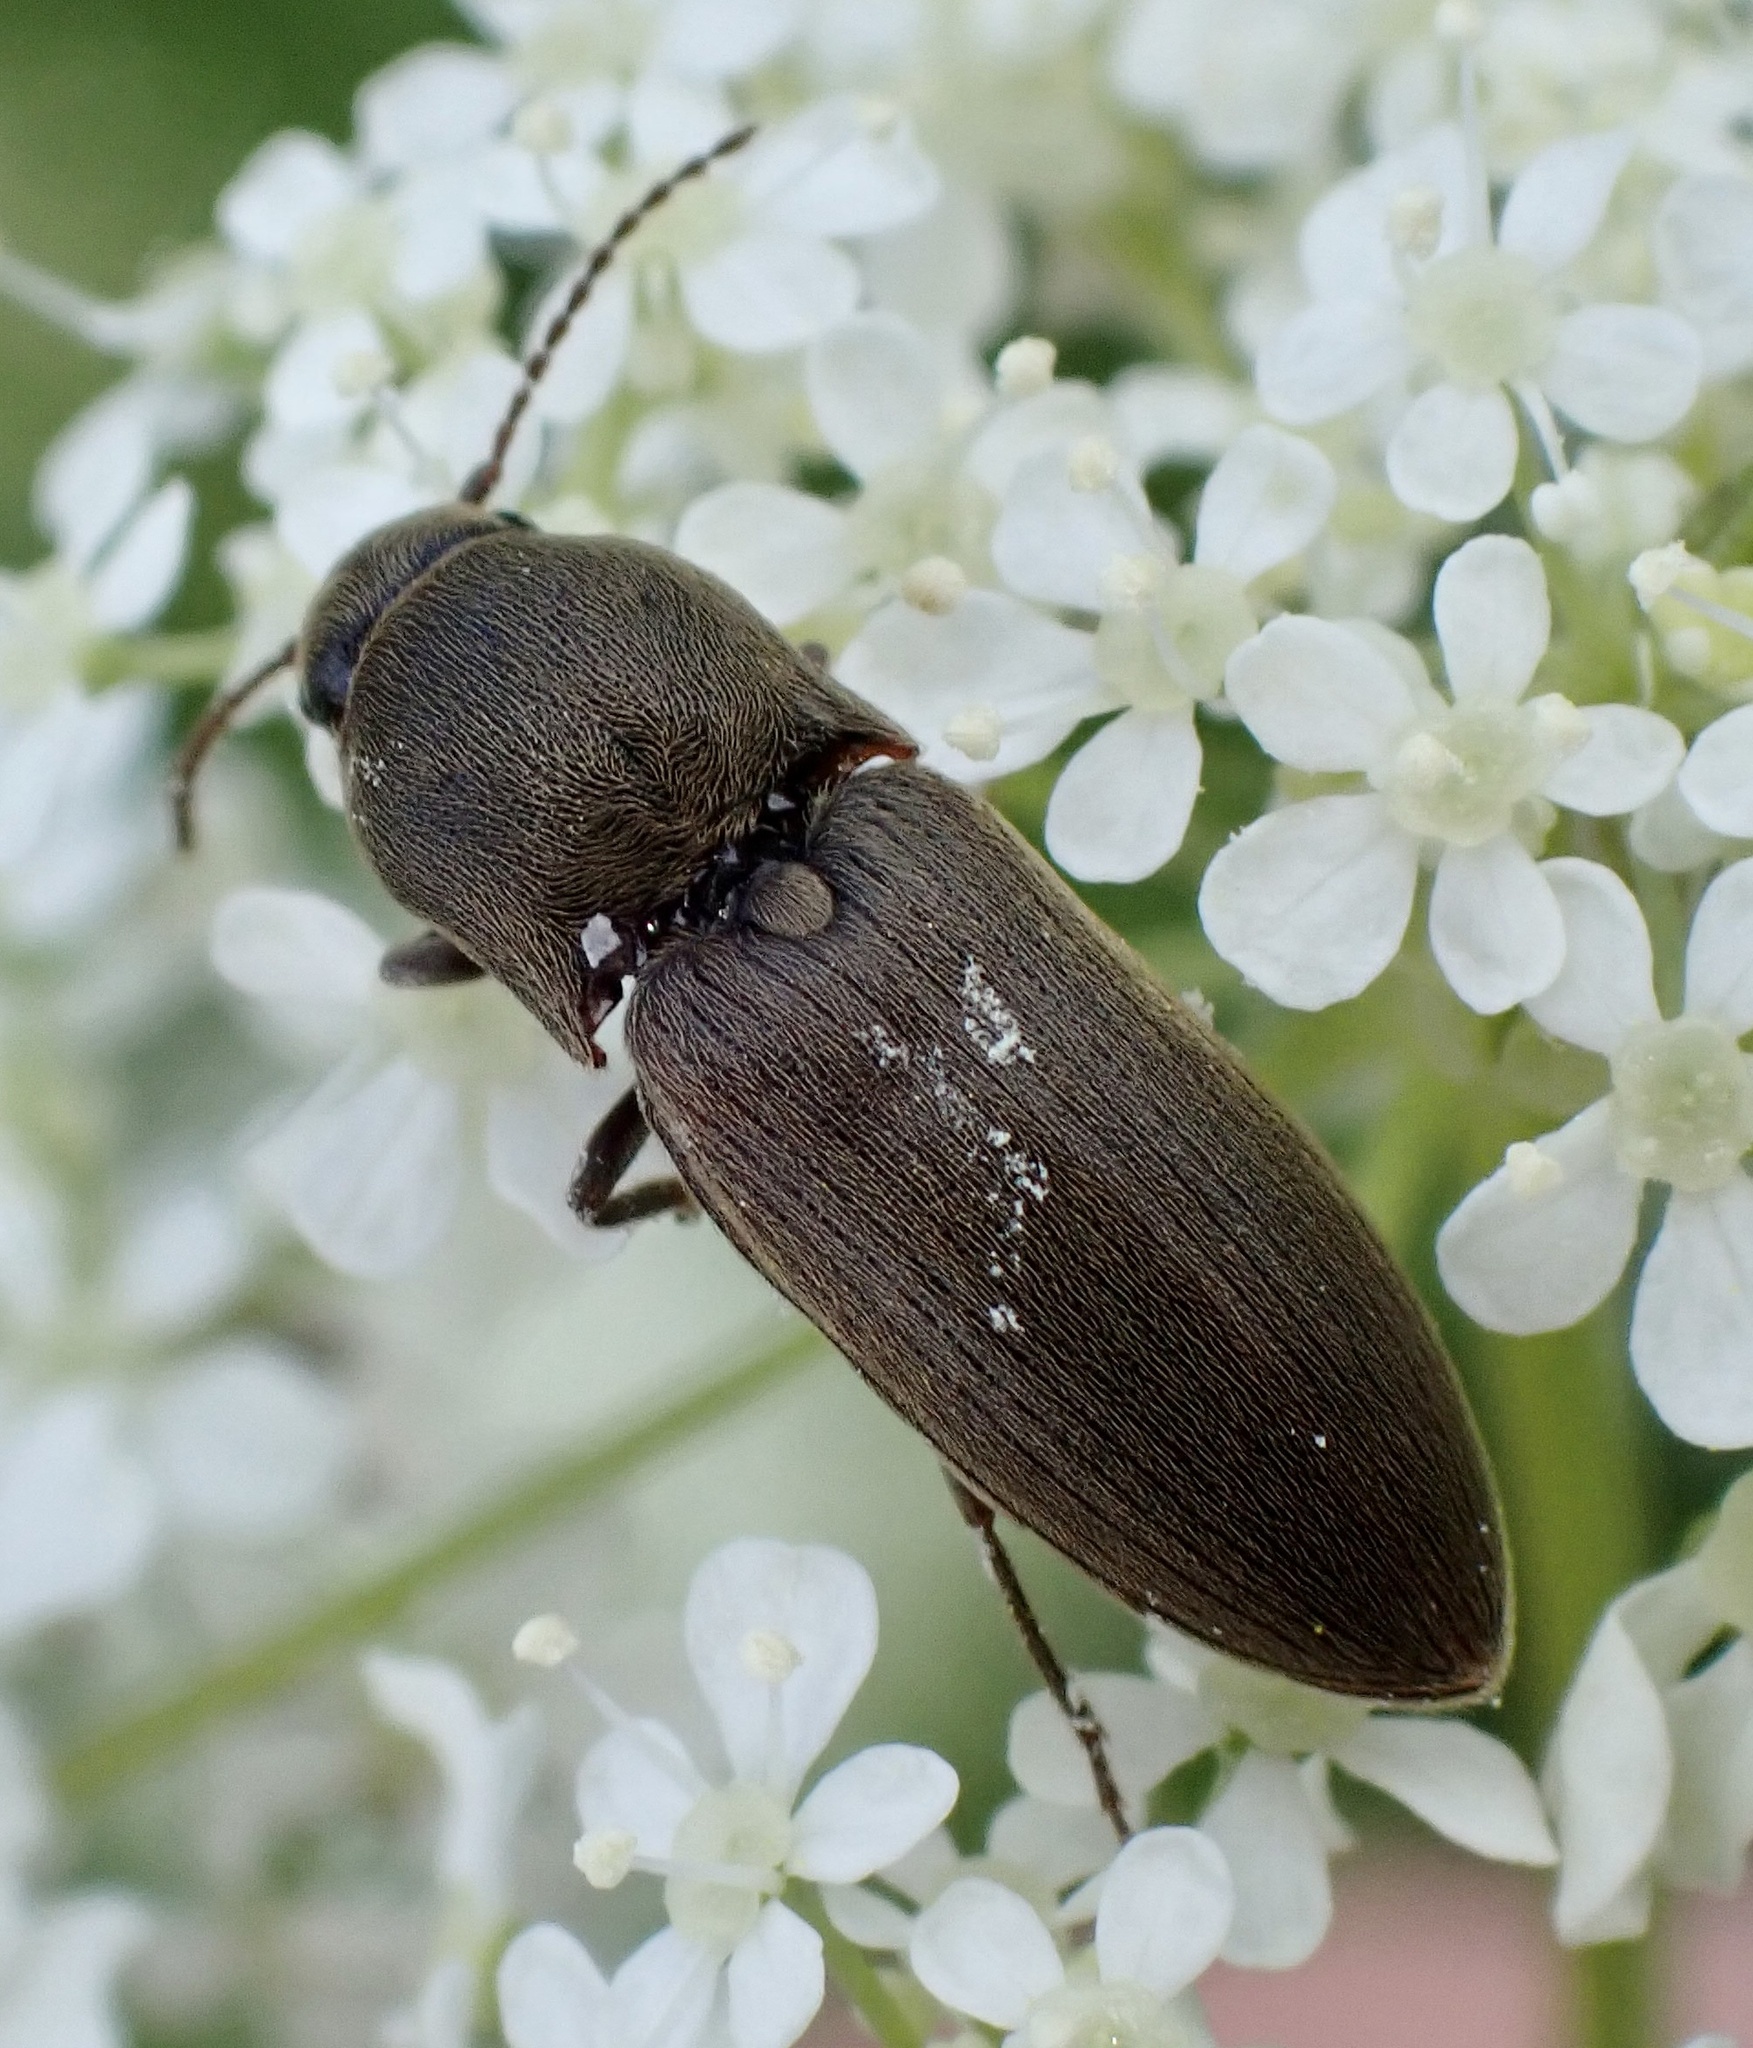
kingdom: Animalia
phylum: Arthropoda
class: Insecta
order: Coleoptera
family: Elateridae
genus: Agriotes
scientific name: Agriotes obscurus
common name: Dusky wireworm
